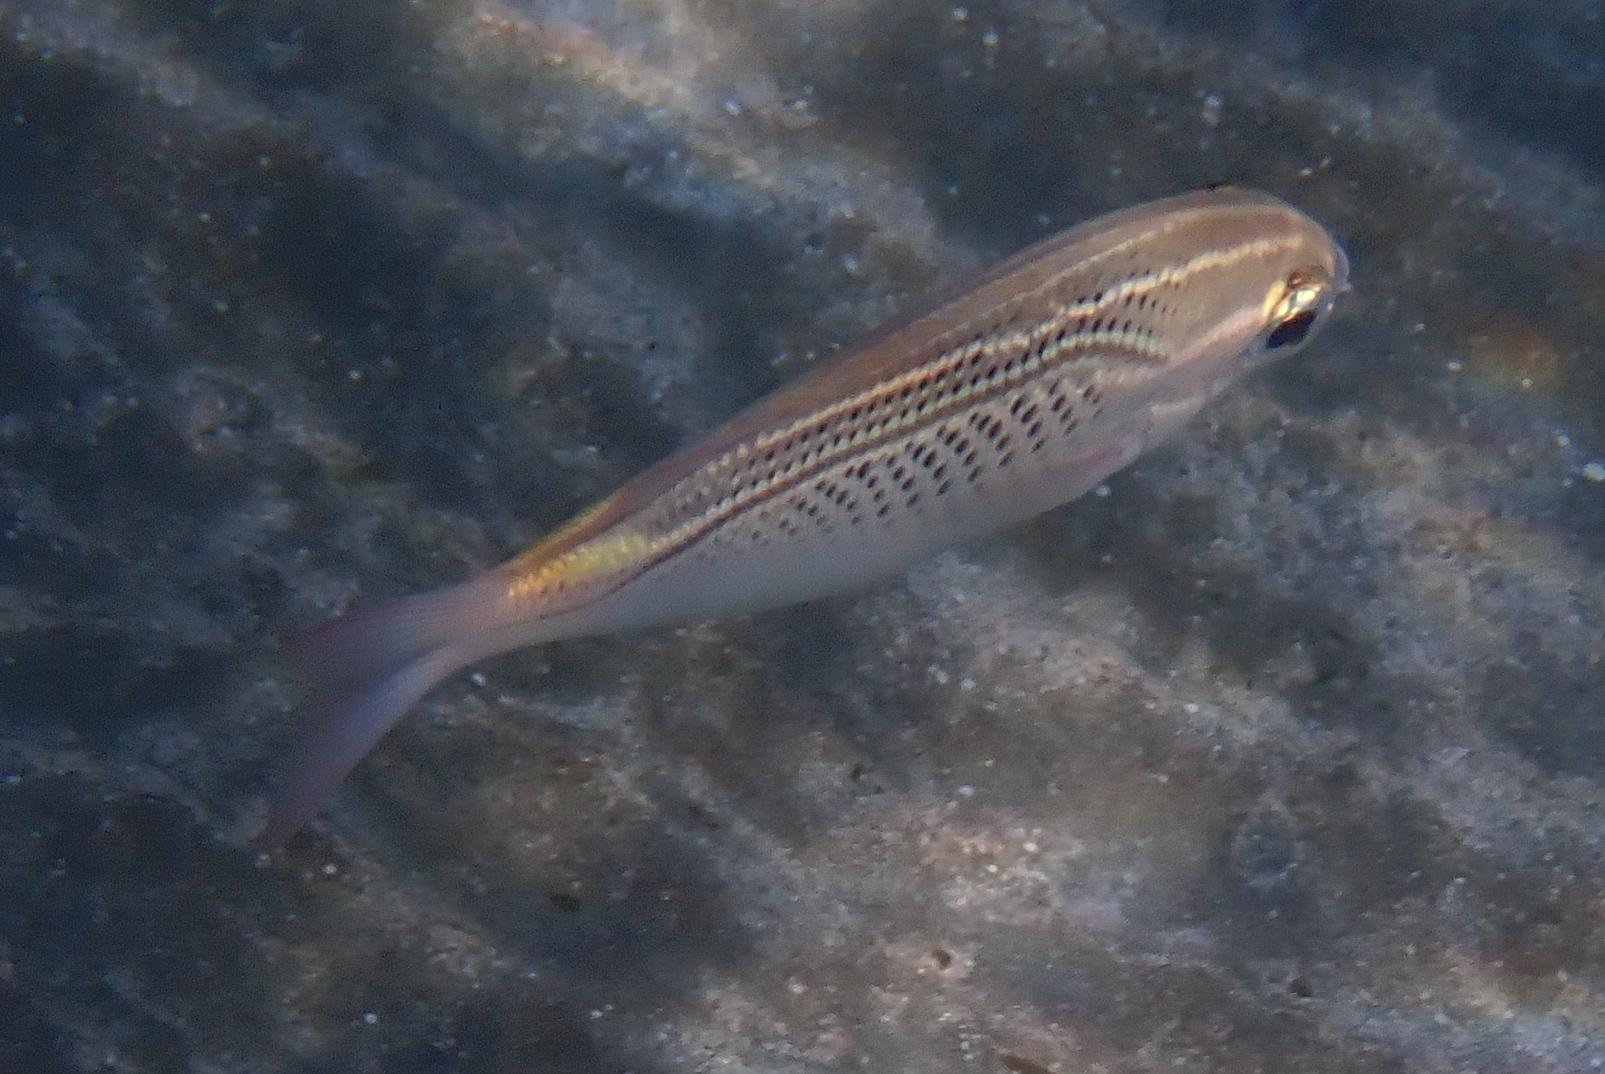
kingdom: Animalia
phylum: Chordata
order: Perciformes
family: Nemipteridae
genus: Scolopsis
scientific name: Scolopsis ghanam
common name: Arabian monocle bream
